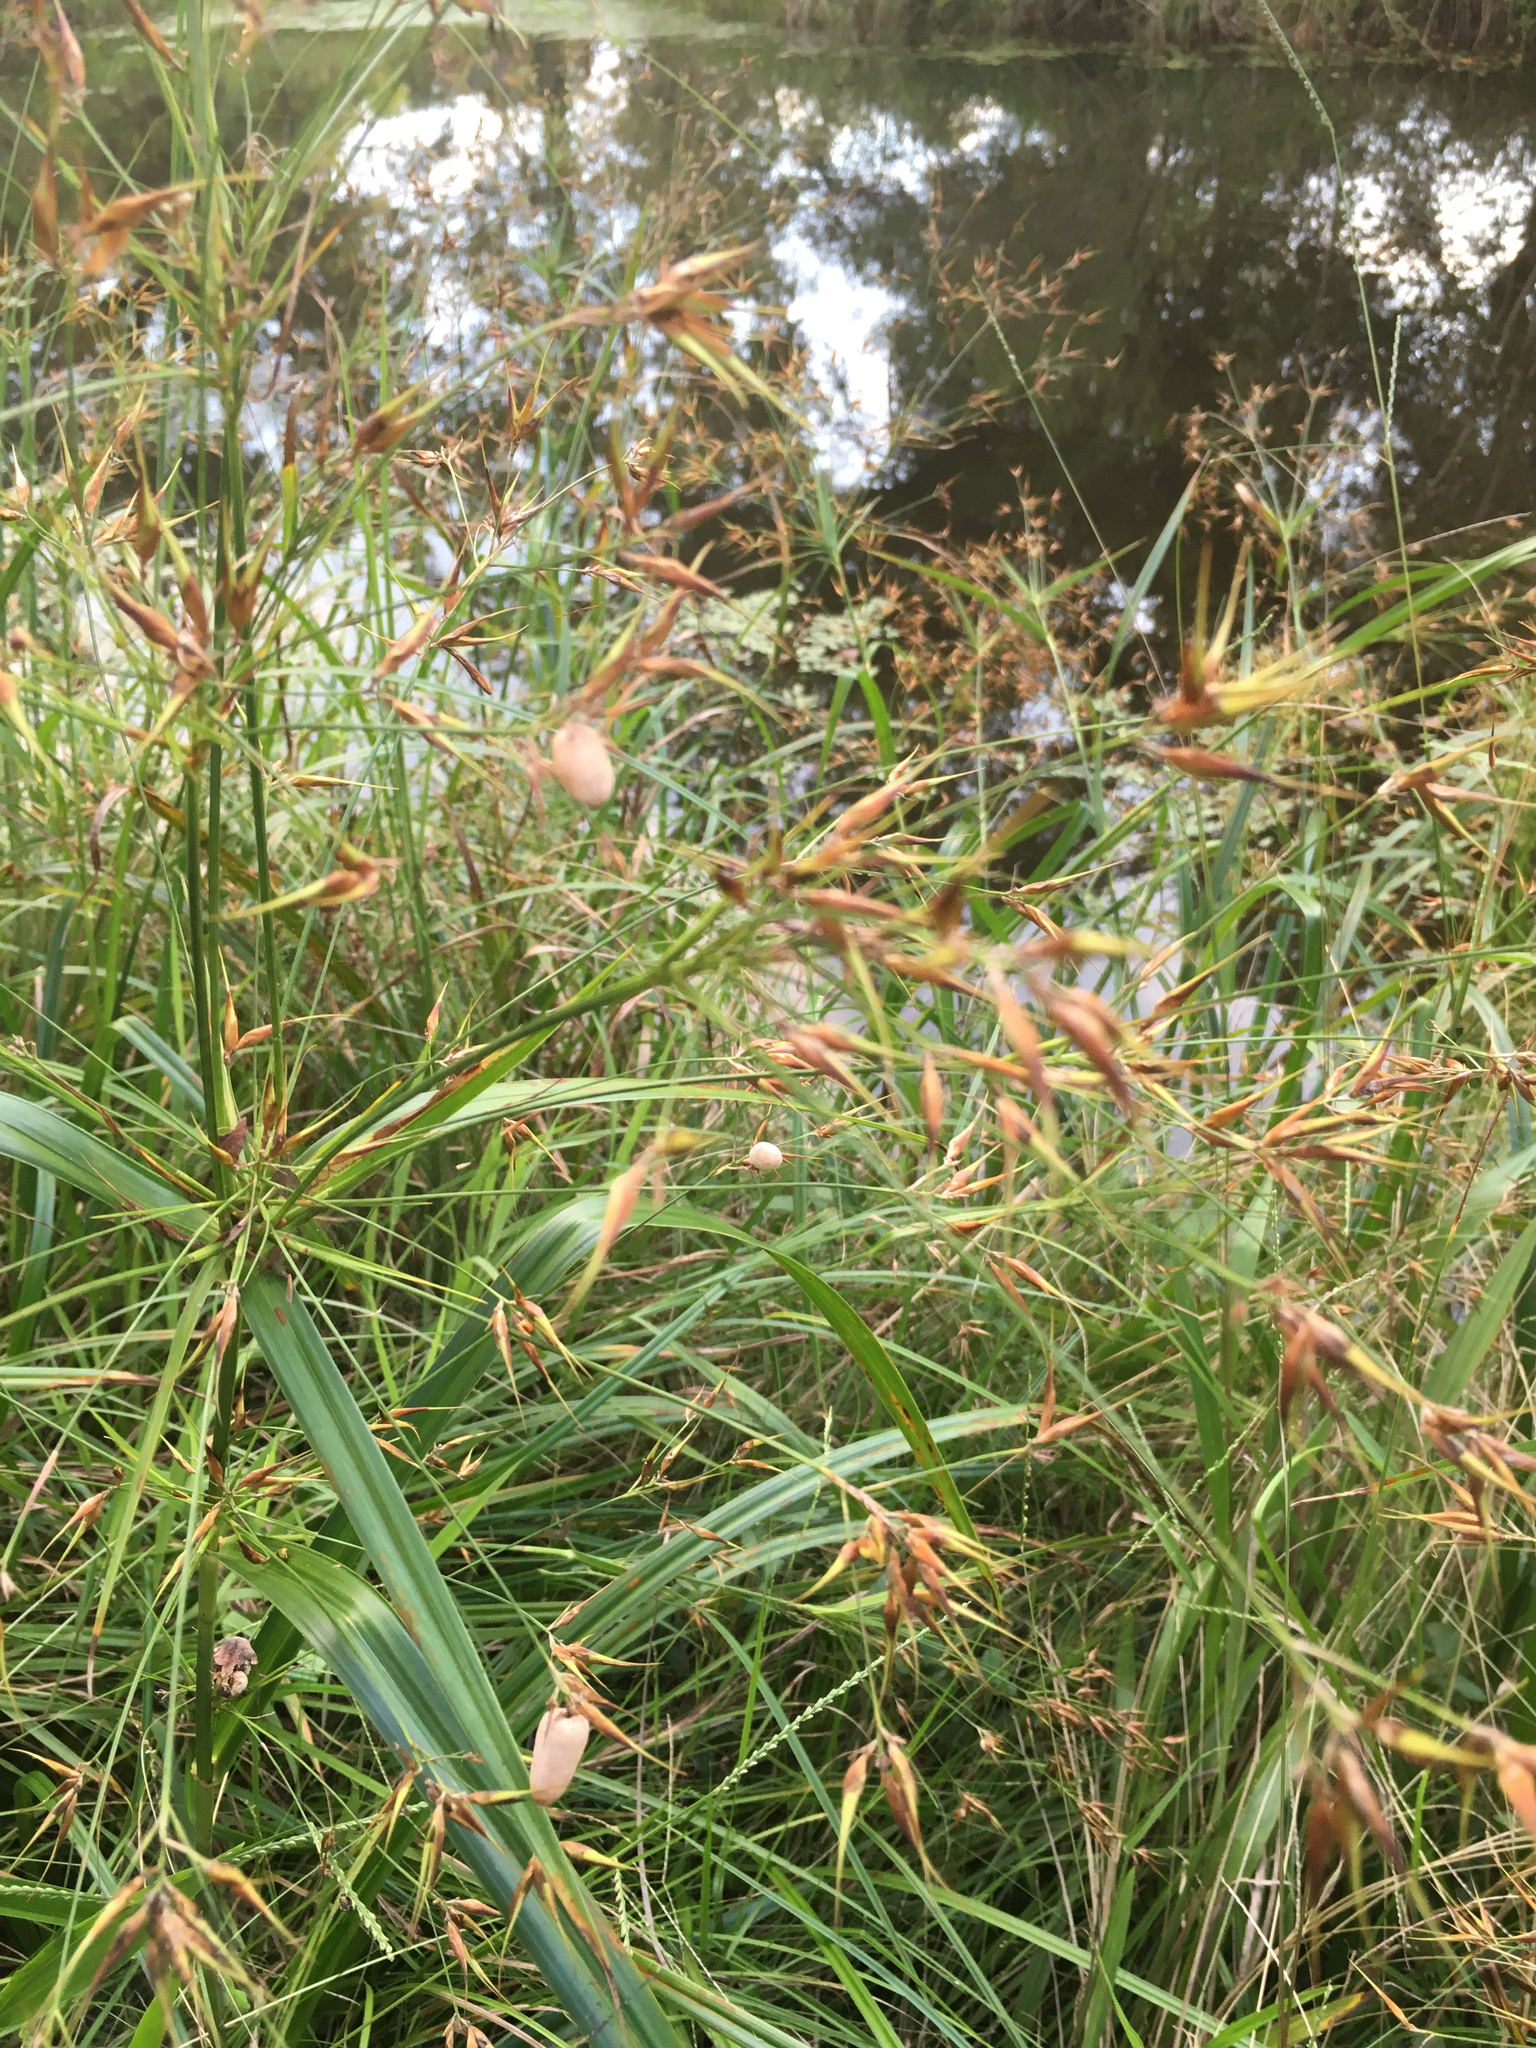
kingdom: Plantae
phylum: Tracheophyta
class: Liliopsida
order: Poales
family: Cyperaceae
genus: Rhynchospora
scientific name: Rhynchospora corniculata
